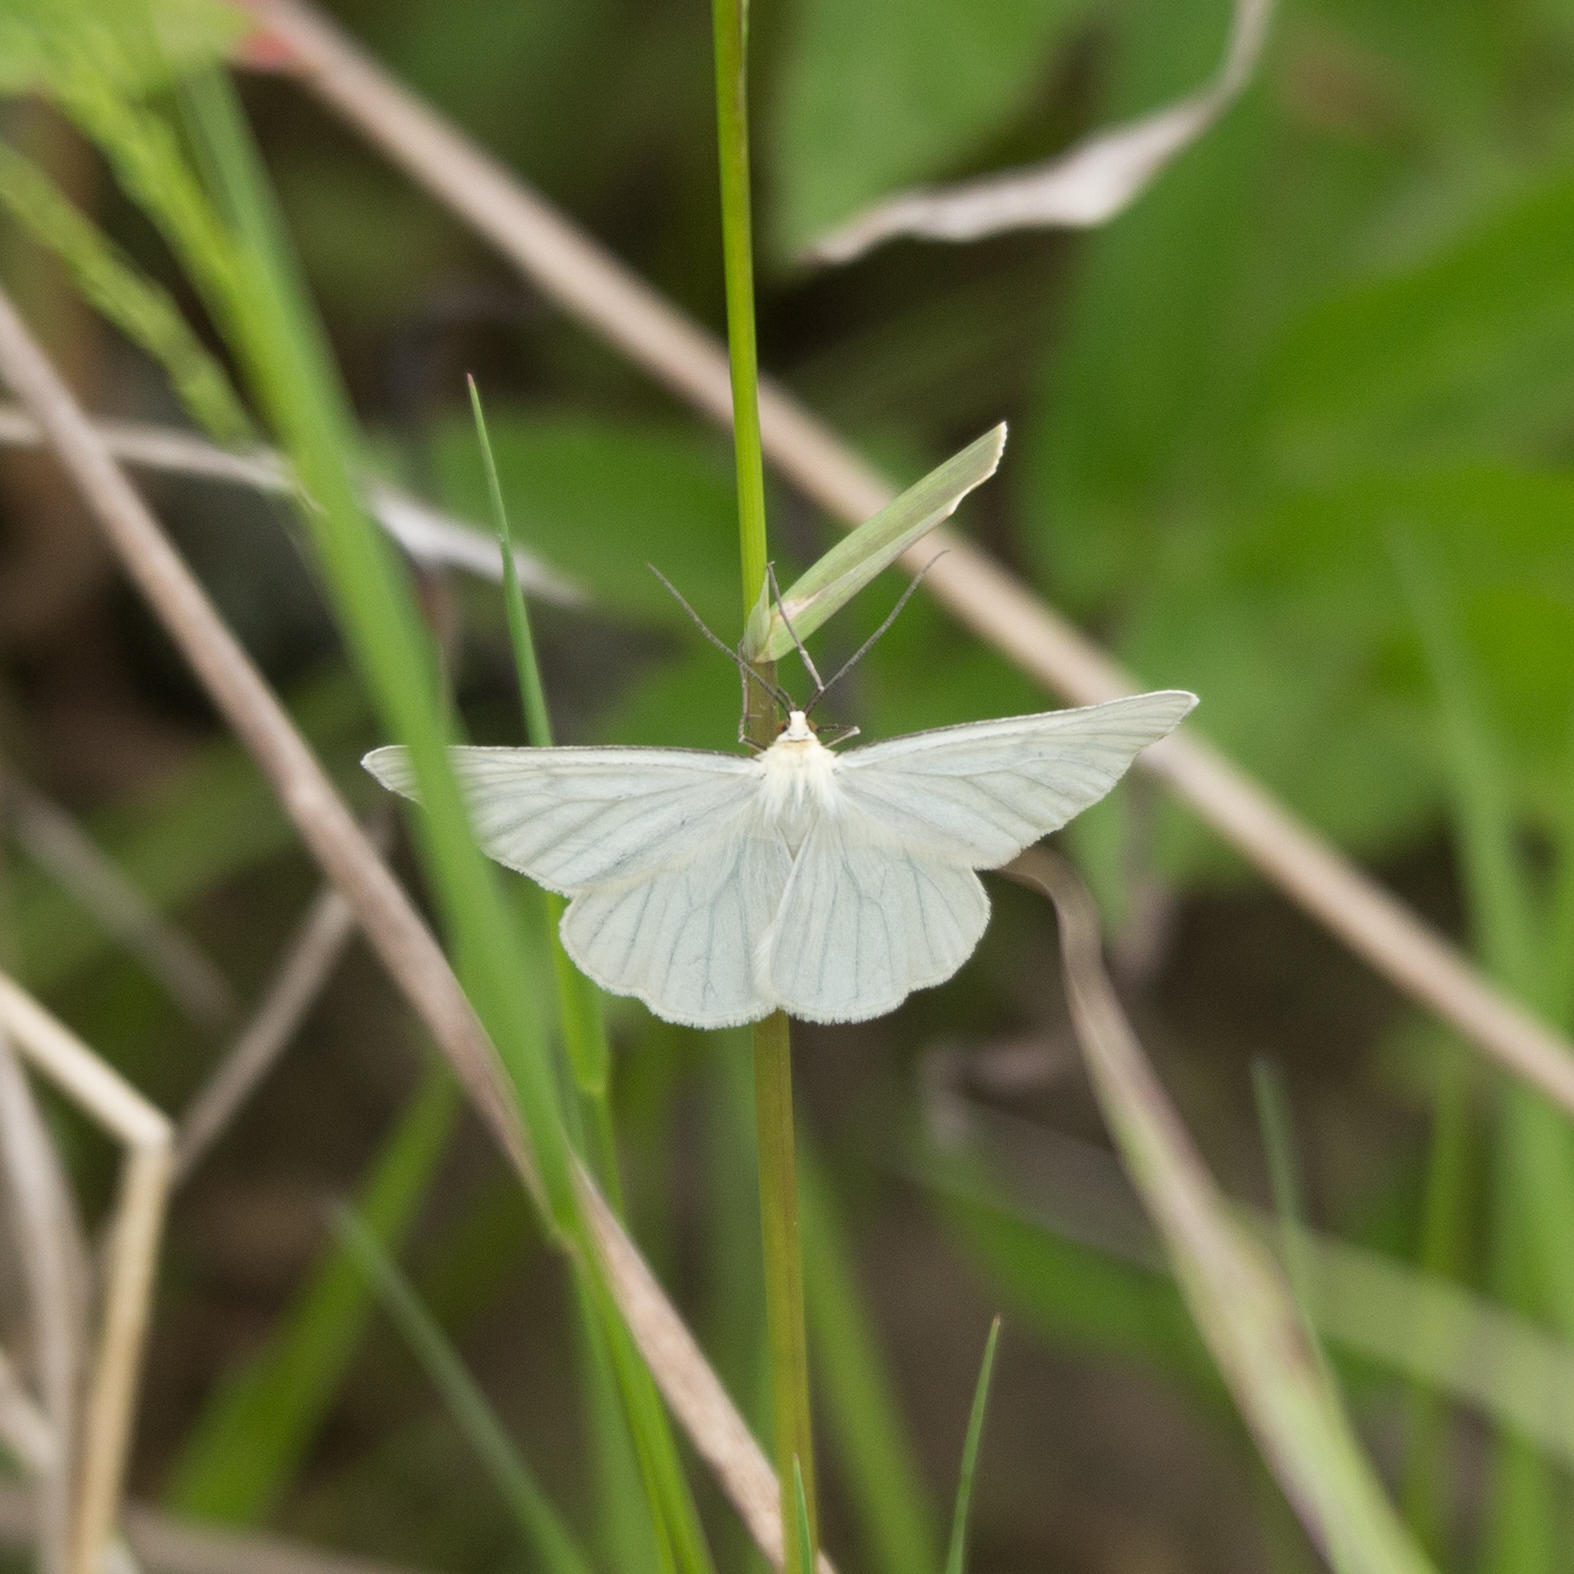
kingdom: Animalia
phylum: Arthropoda
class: Insecta
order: Lepidoptera
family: Geometridae
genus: Siona
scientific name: Siona lineata
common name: Black-veined moth
